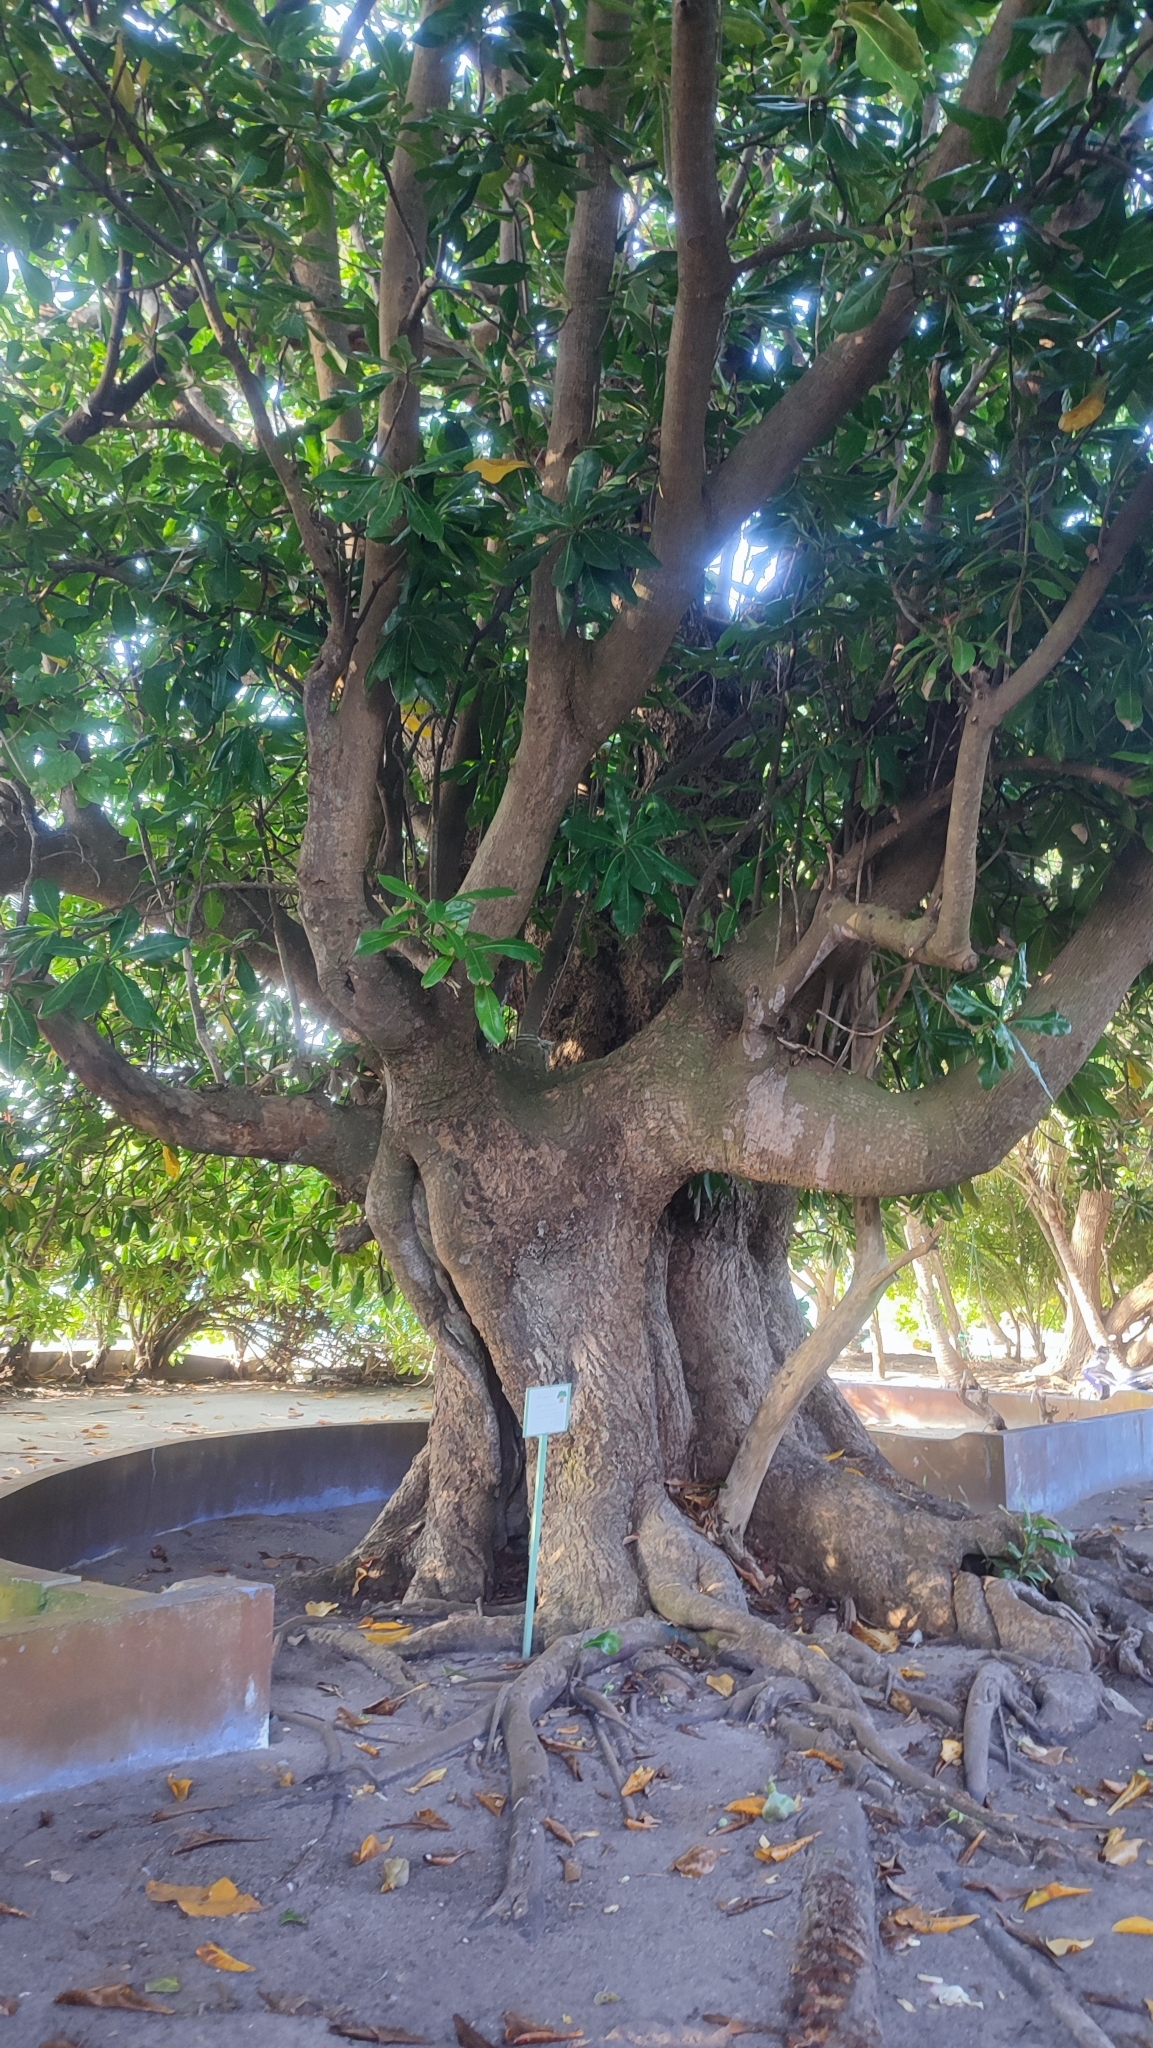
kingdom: Plantae
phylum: Tracheophyta
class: Magnoliopsida
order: Ericales
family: Lecythidaceae
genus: Barringtonia
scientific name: Barringtonia asiatica
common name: Mango-pine
